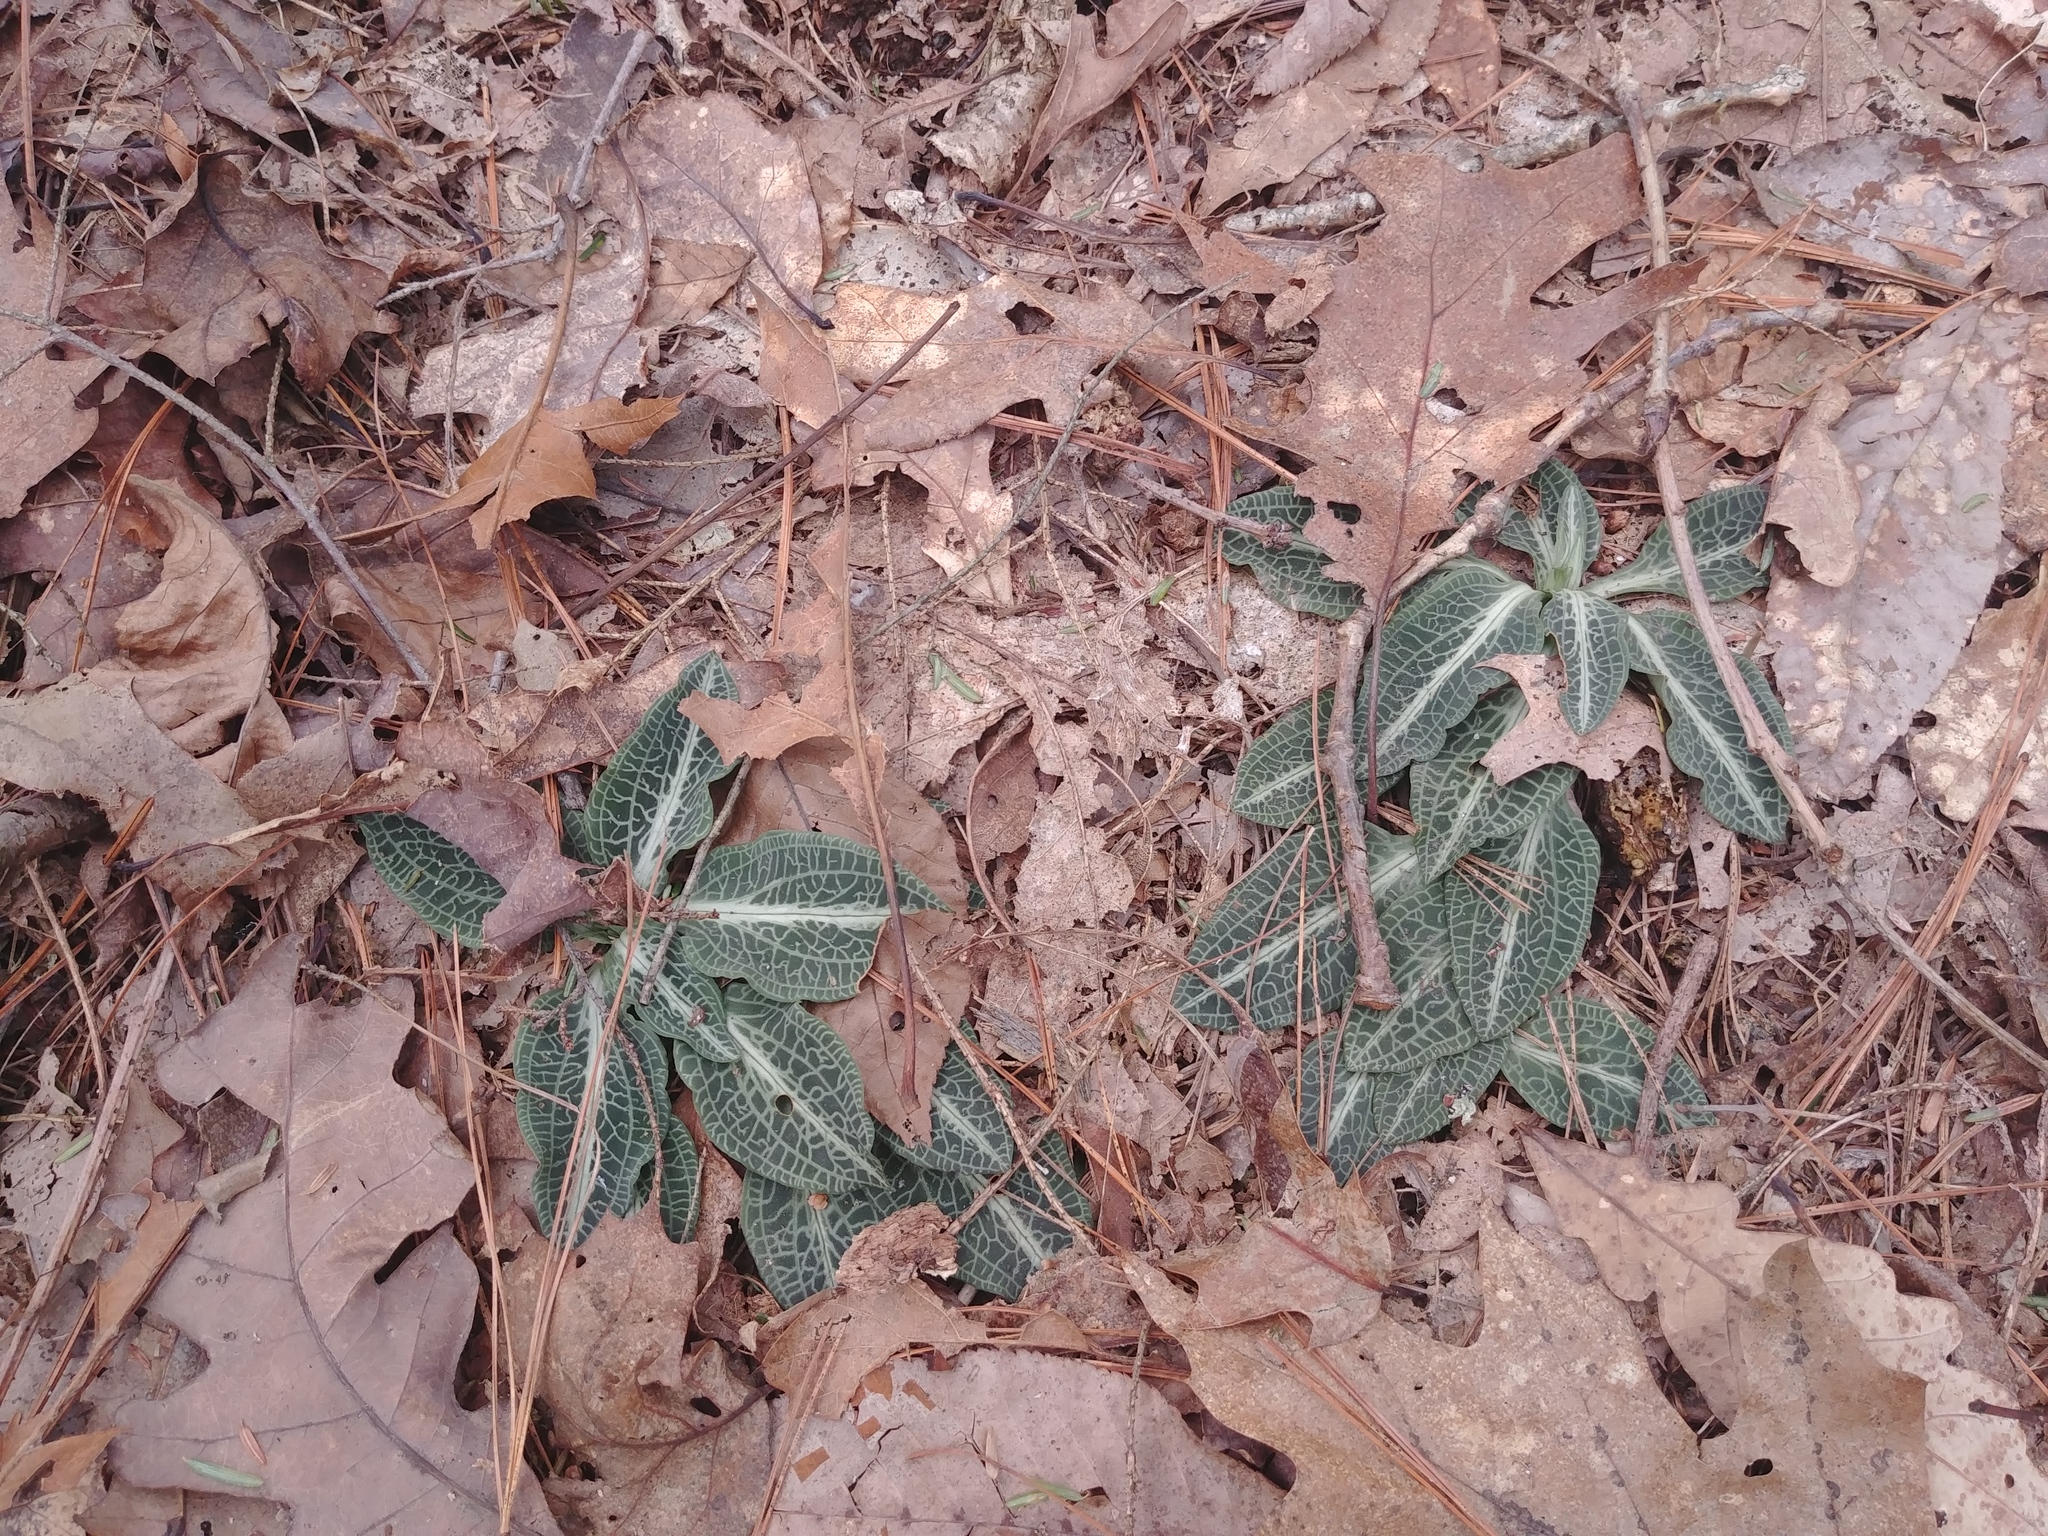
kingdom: Plantae
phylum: Tracheophyta
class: Liliopsida
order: Asparagales
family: Orchidaceae
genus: Goodyera
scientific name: Goodyera pubescens
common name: Downy rattlesnake-plantain
